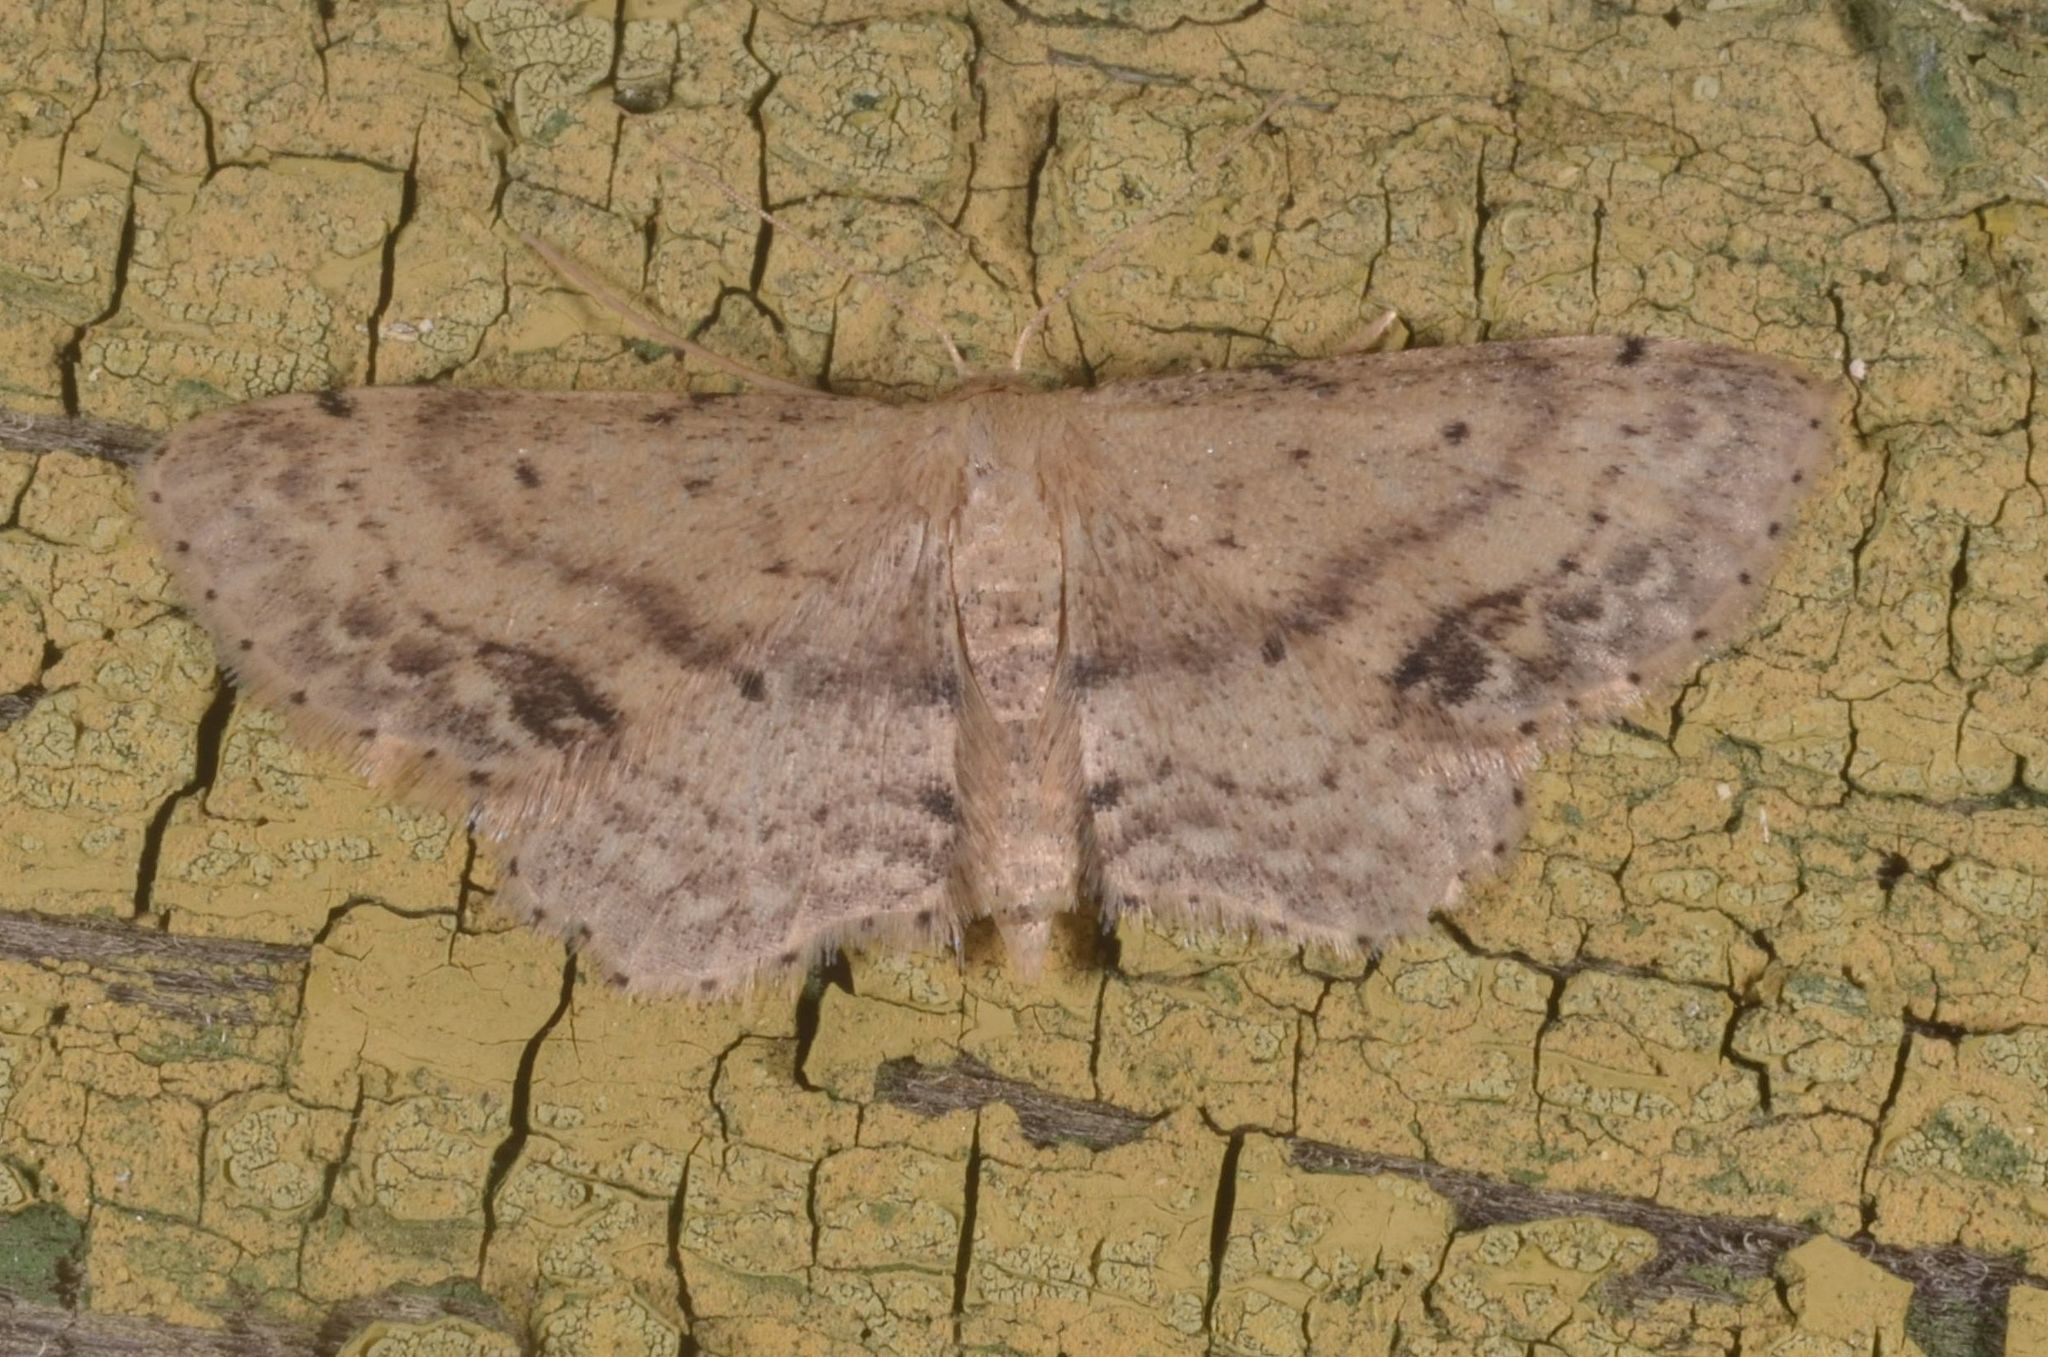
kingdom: Animalia
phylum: Arthropoda
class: Insecta
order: Lepidoptera
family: Geometridae
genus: Idaea
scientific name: Idaea dimidiata
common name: Single-dotted wave
